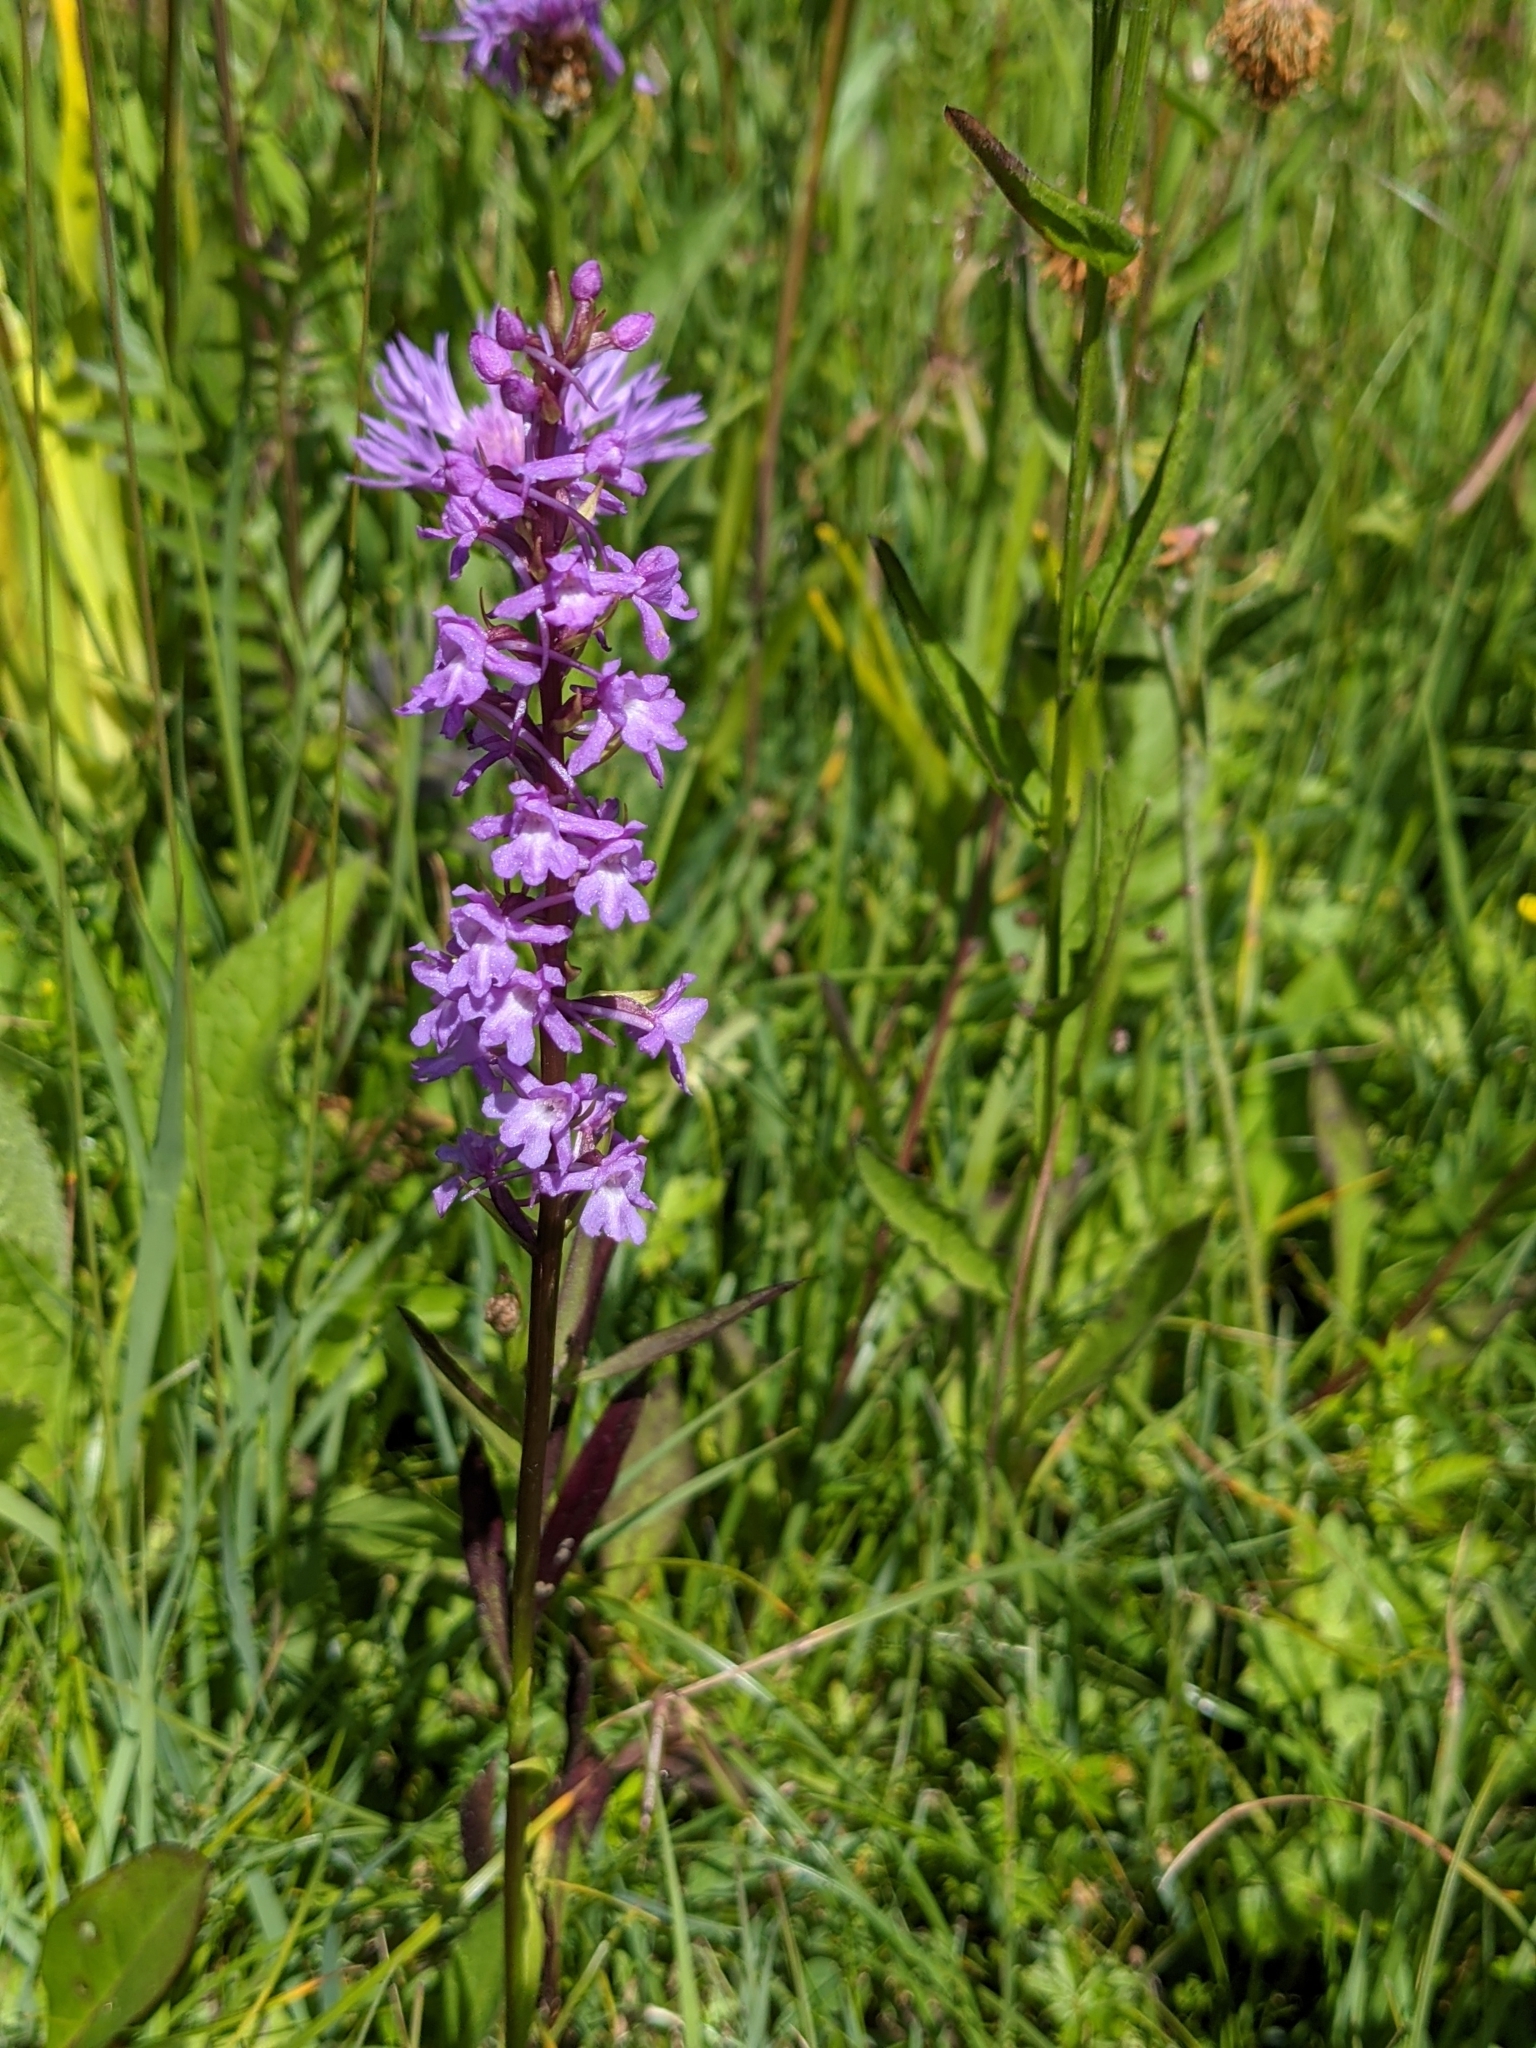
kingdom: Plantae
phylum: Tracheophyta
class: Liliopsida
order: Asparagales
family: Orchidaceae
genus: Gymnadenia
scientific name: Gymnadenia conopsea
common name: Fragrant orchid
